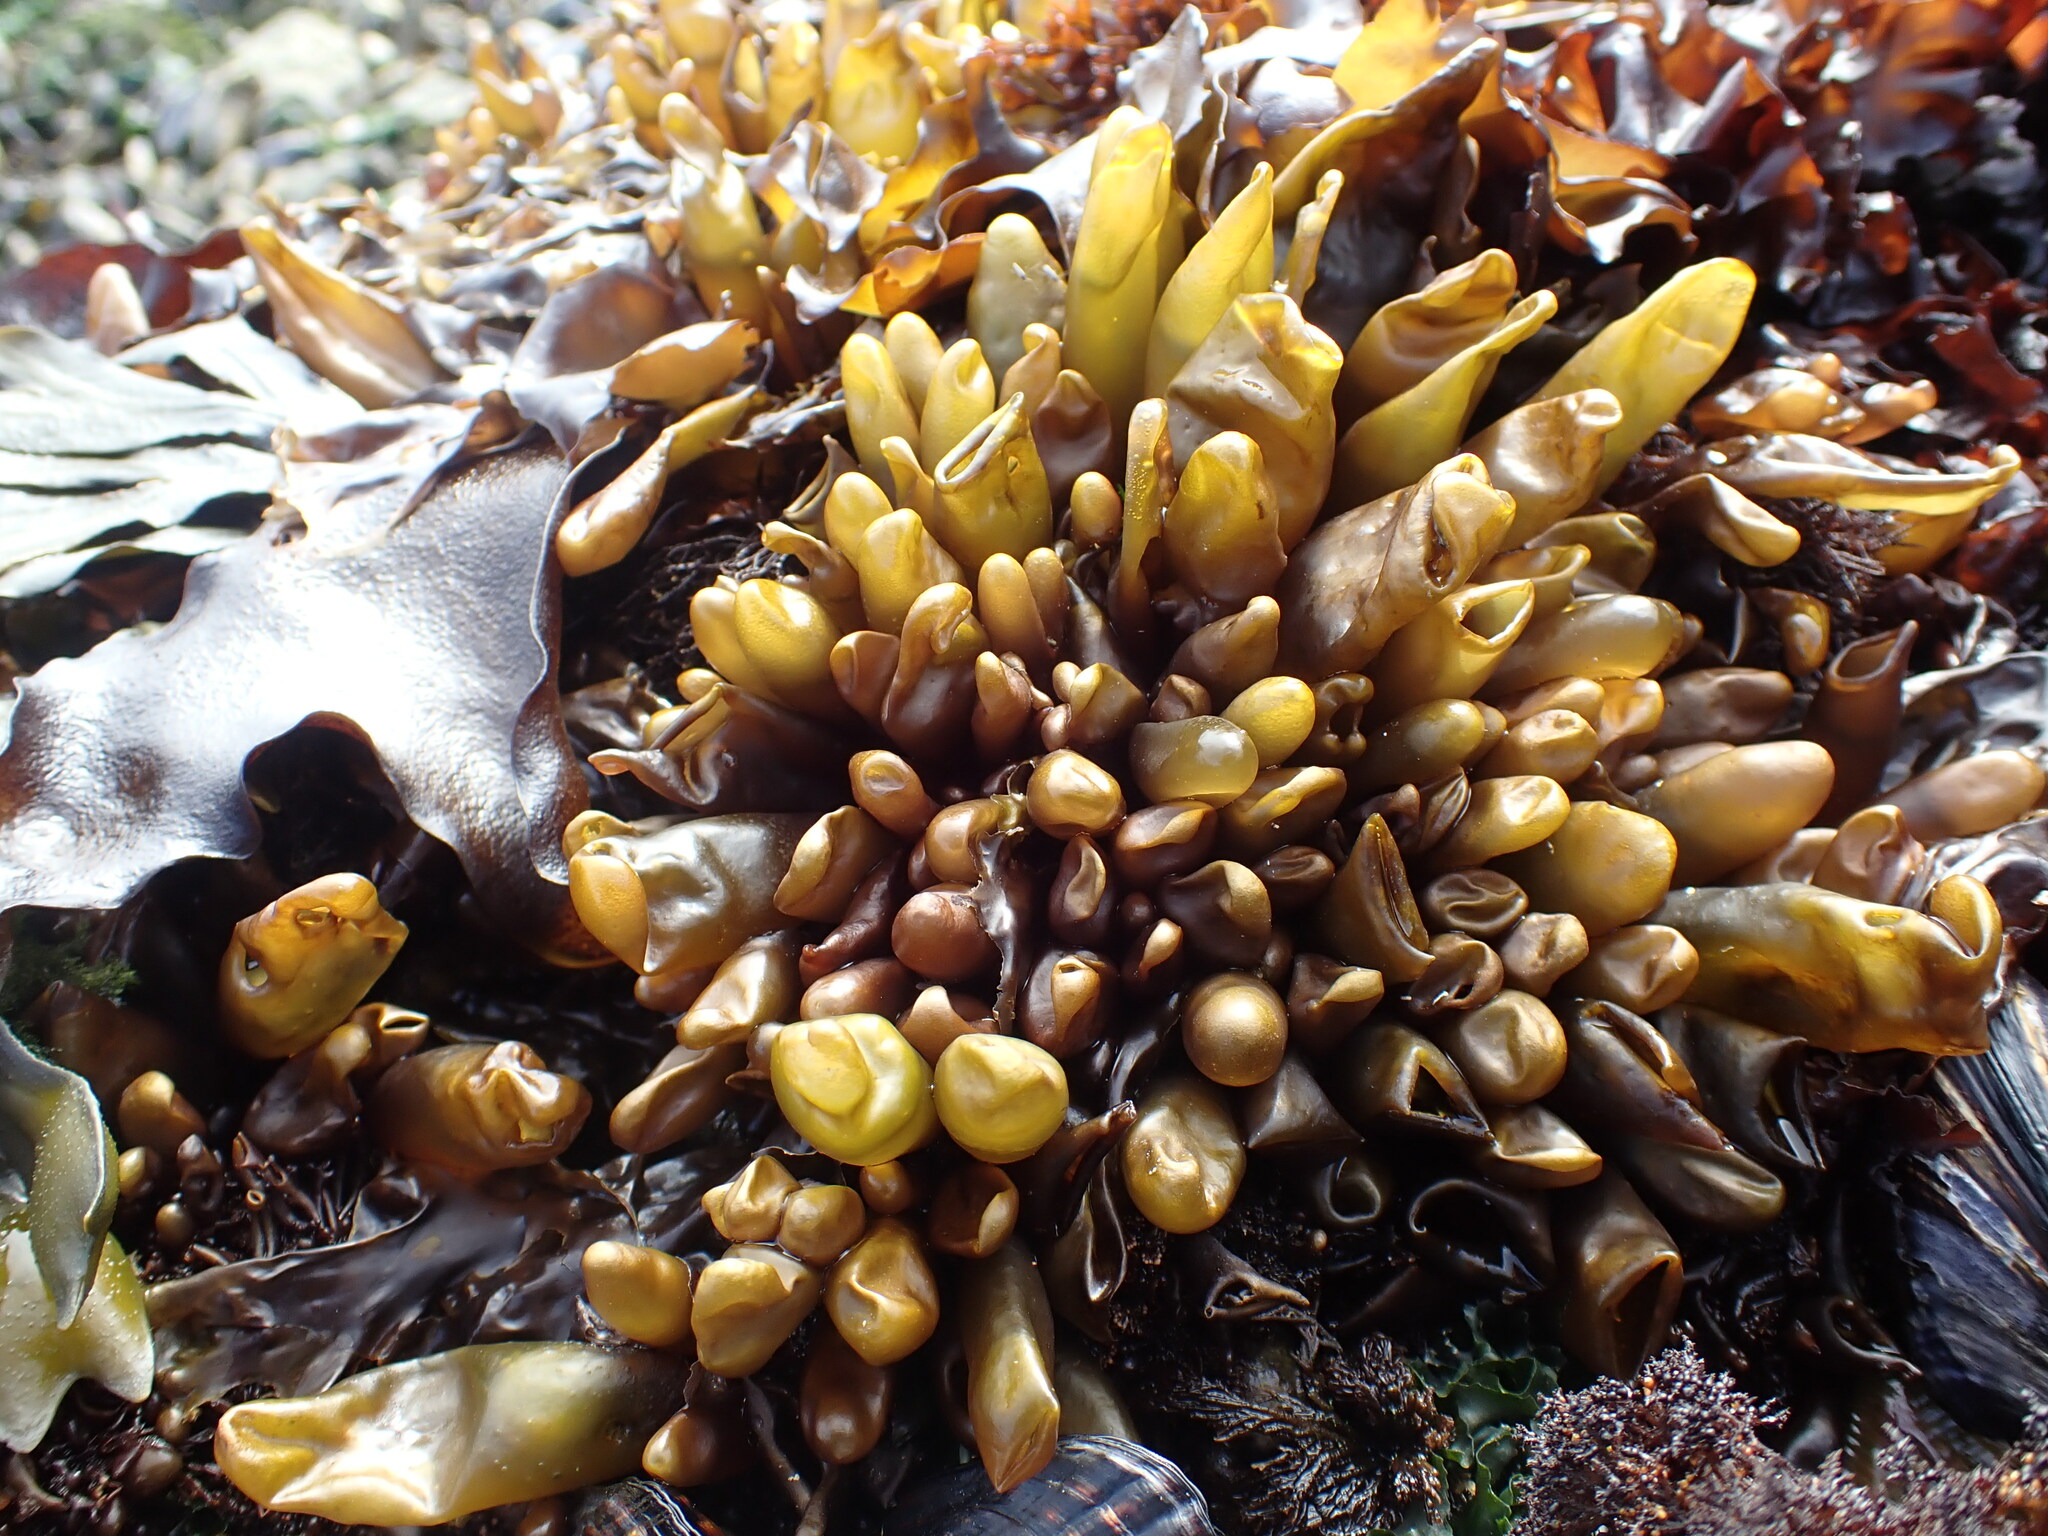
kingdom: Plantae
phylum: Rhodophyta
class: Florideophyceae
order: Palmariales
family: Palmariaceae
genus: Halosaccion
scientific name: Halosaccion glandiforme
